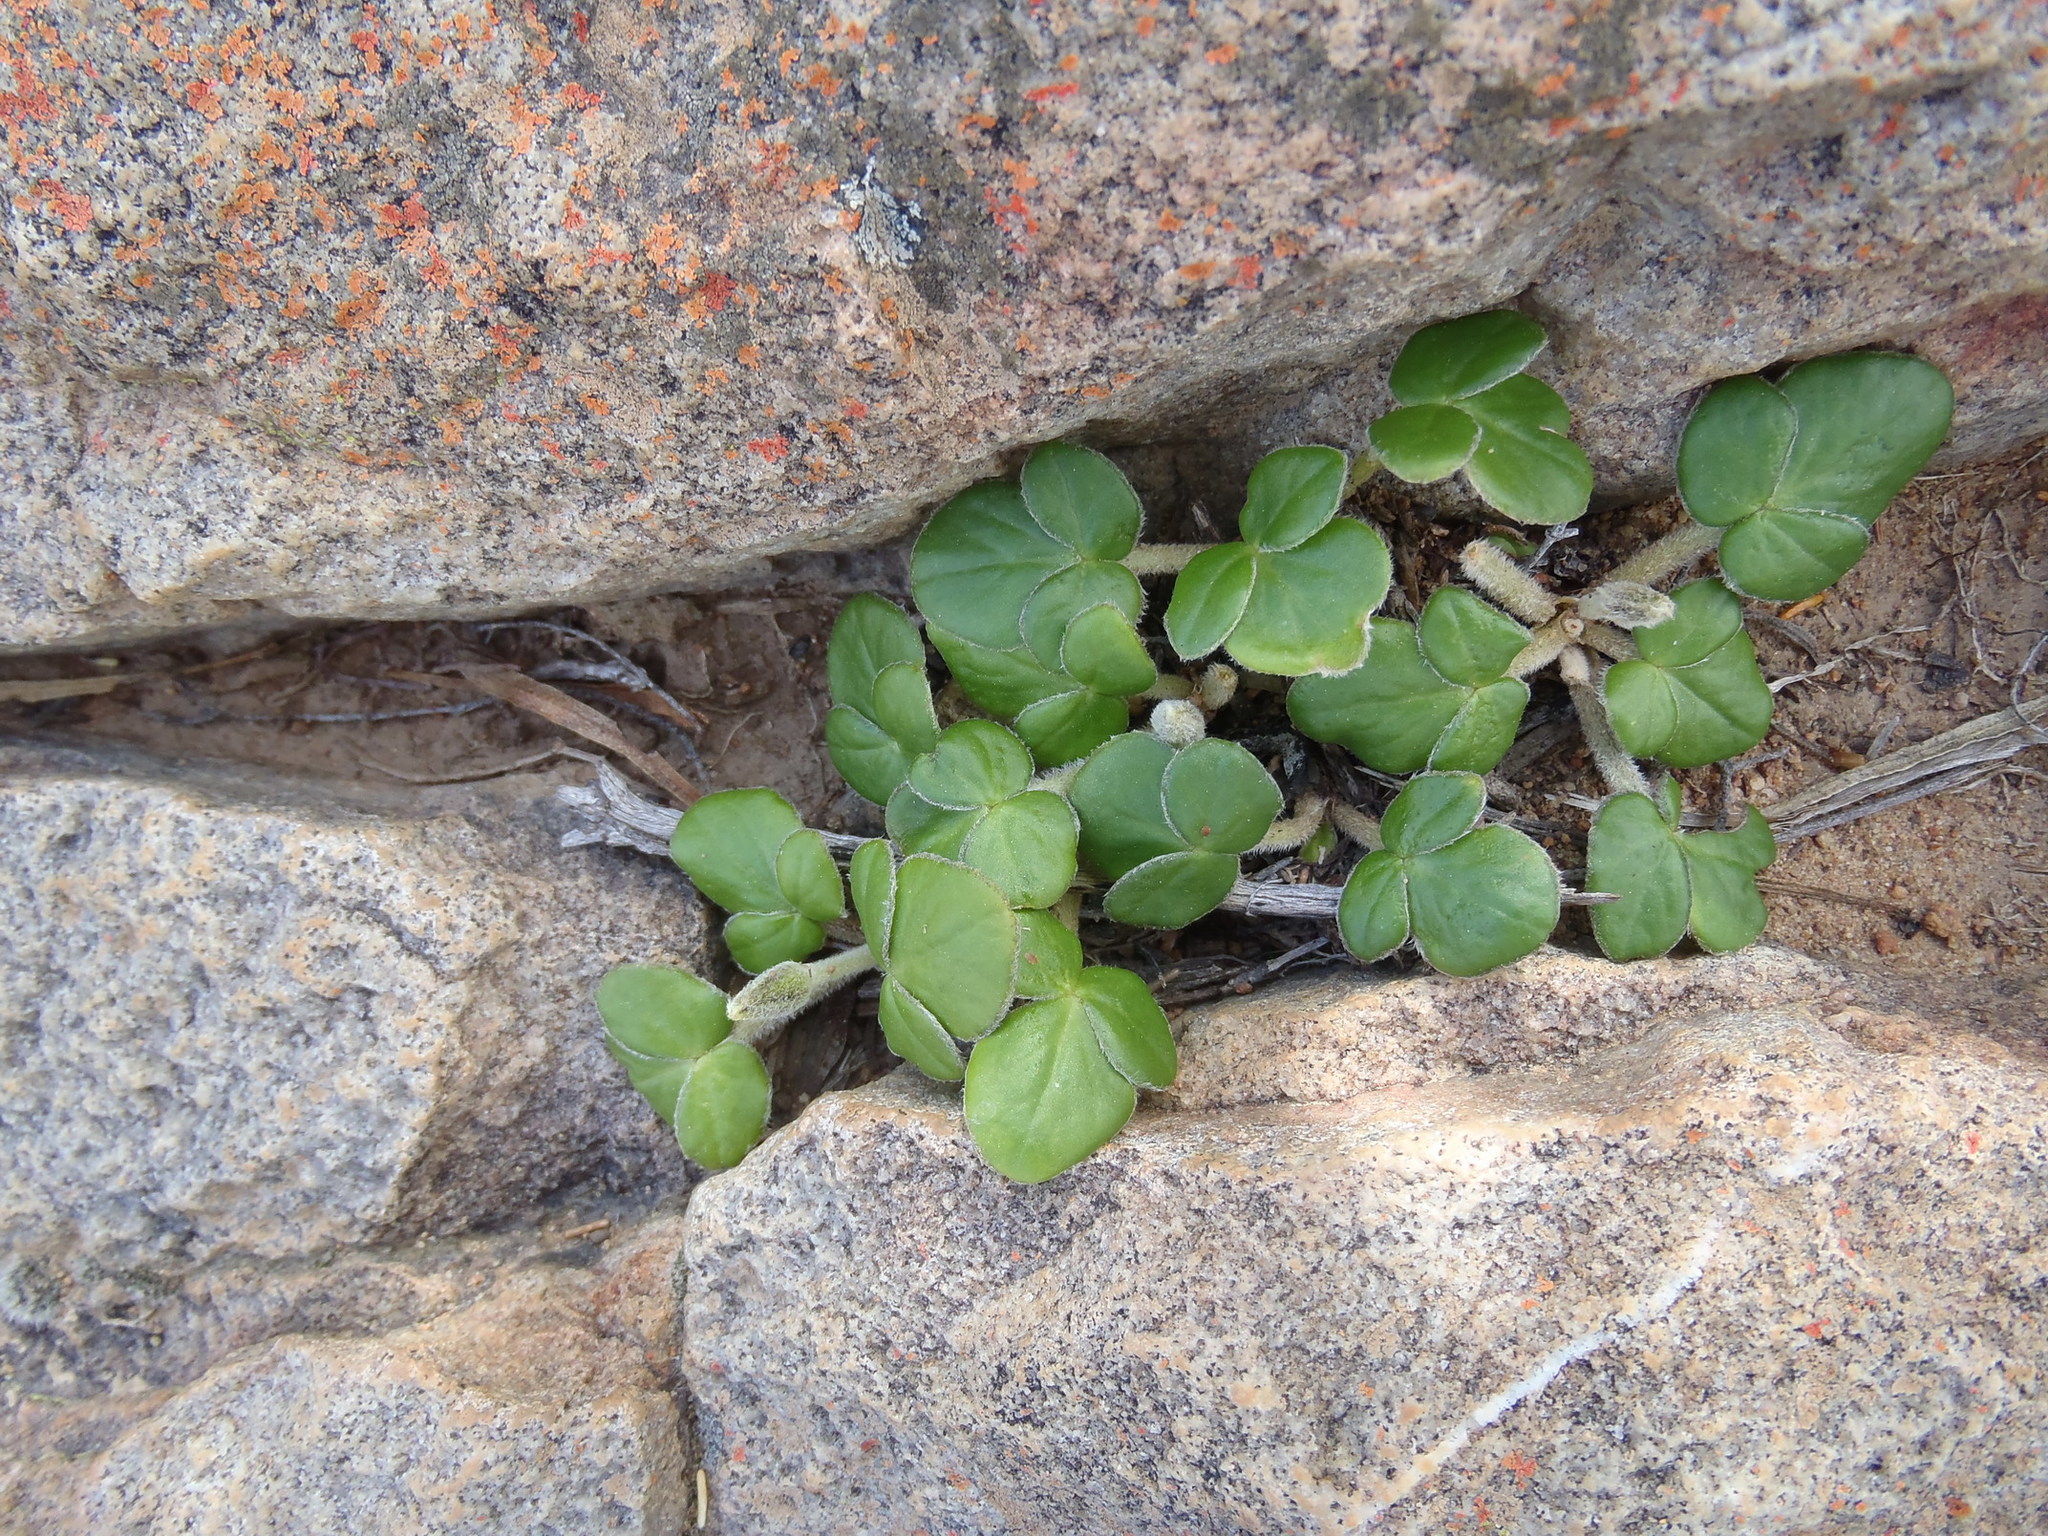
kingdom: Plantae
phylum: Tracheophyta
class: Magnoliopsida
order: Oxalidales
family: Oxalidaceae
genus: Oxalis
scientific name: Oxalis algoensis
